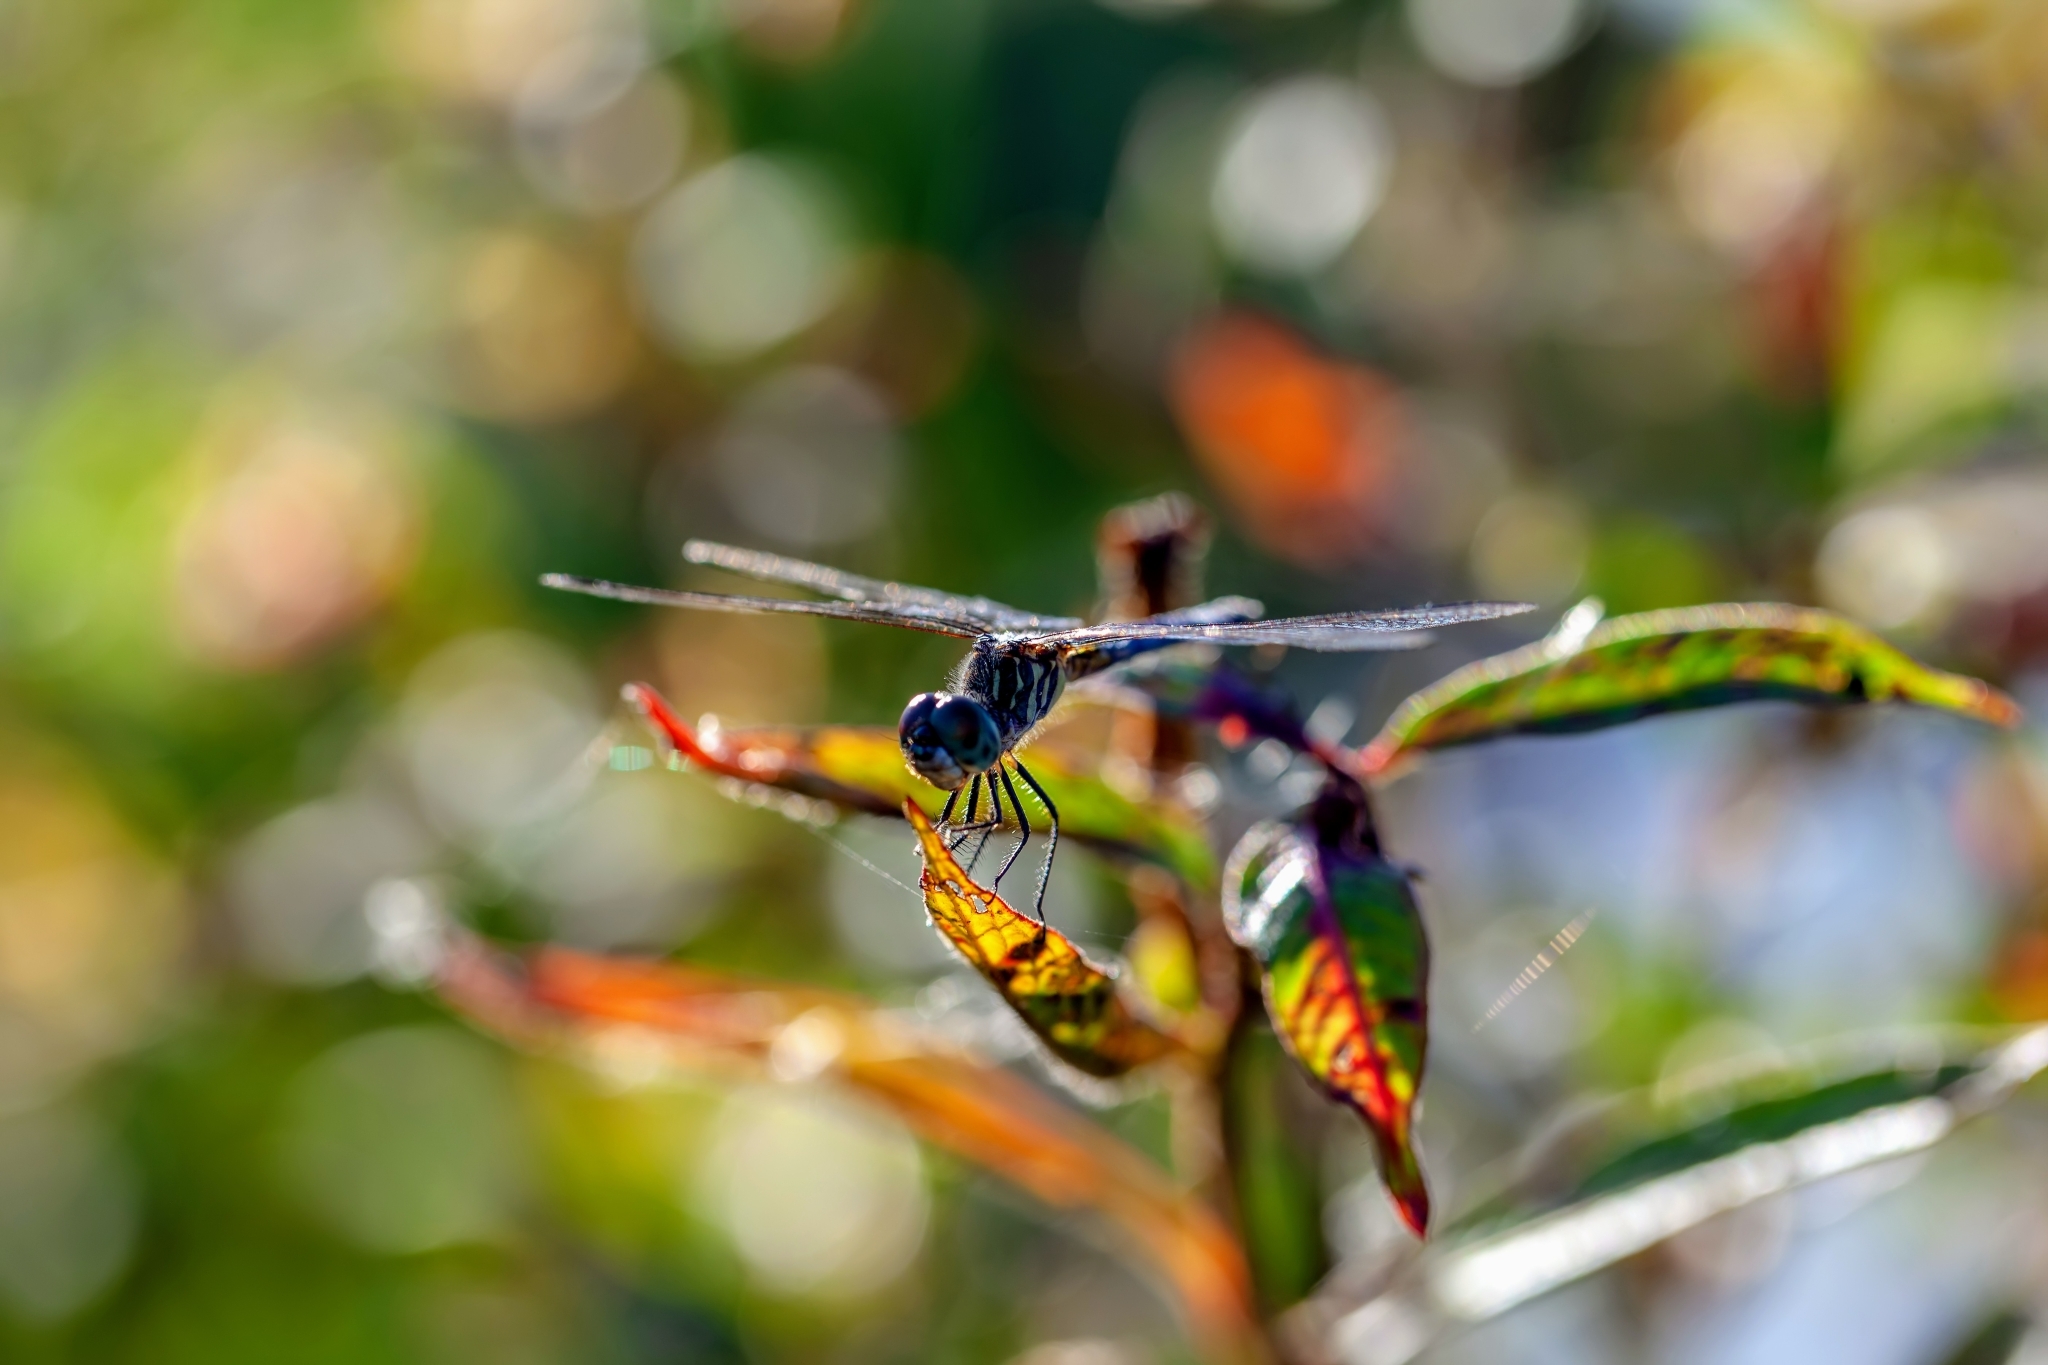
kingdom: Animalia
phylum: Arthropoda
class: Insecta
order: Odonata
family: Libellulidae
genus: Pachydiplax
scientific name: Pachydiplax longipennis
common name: Blue dasher
